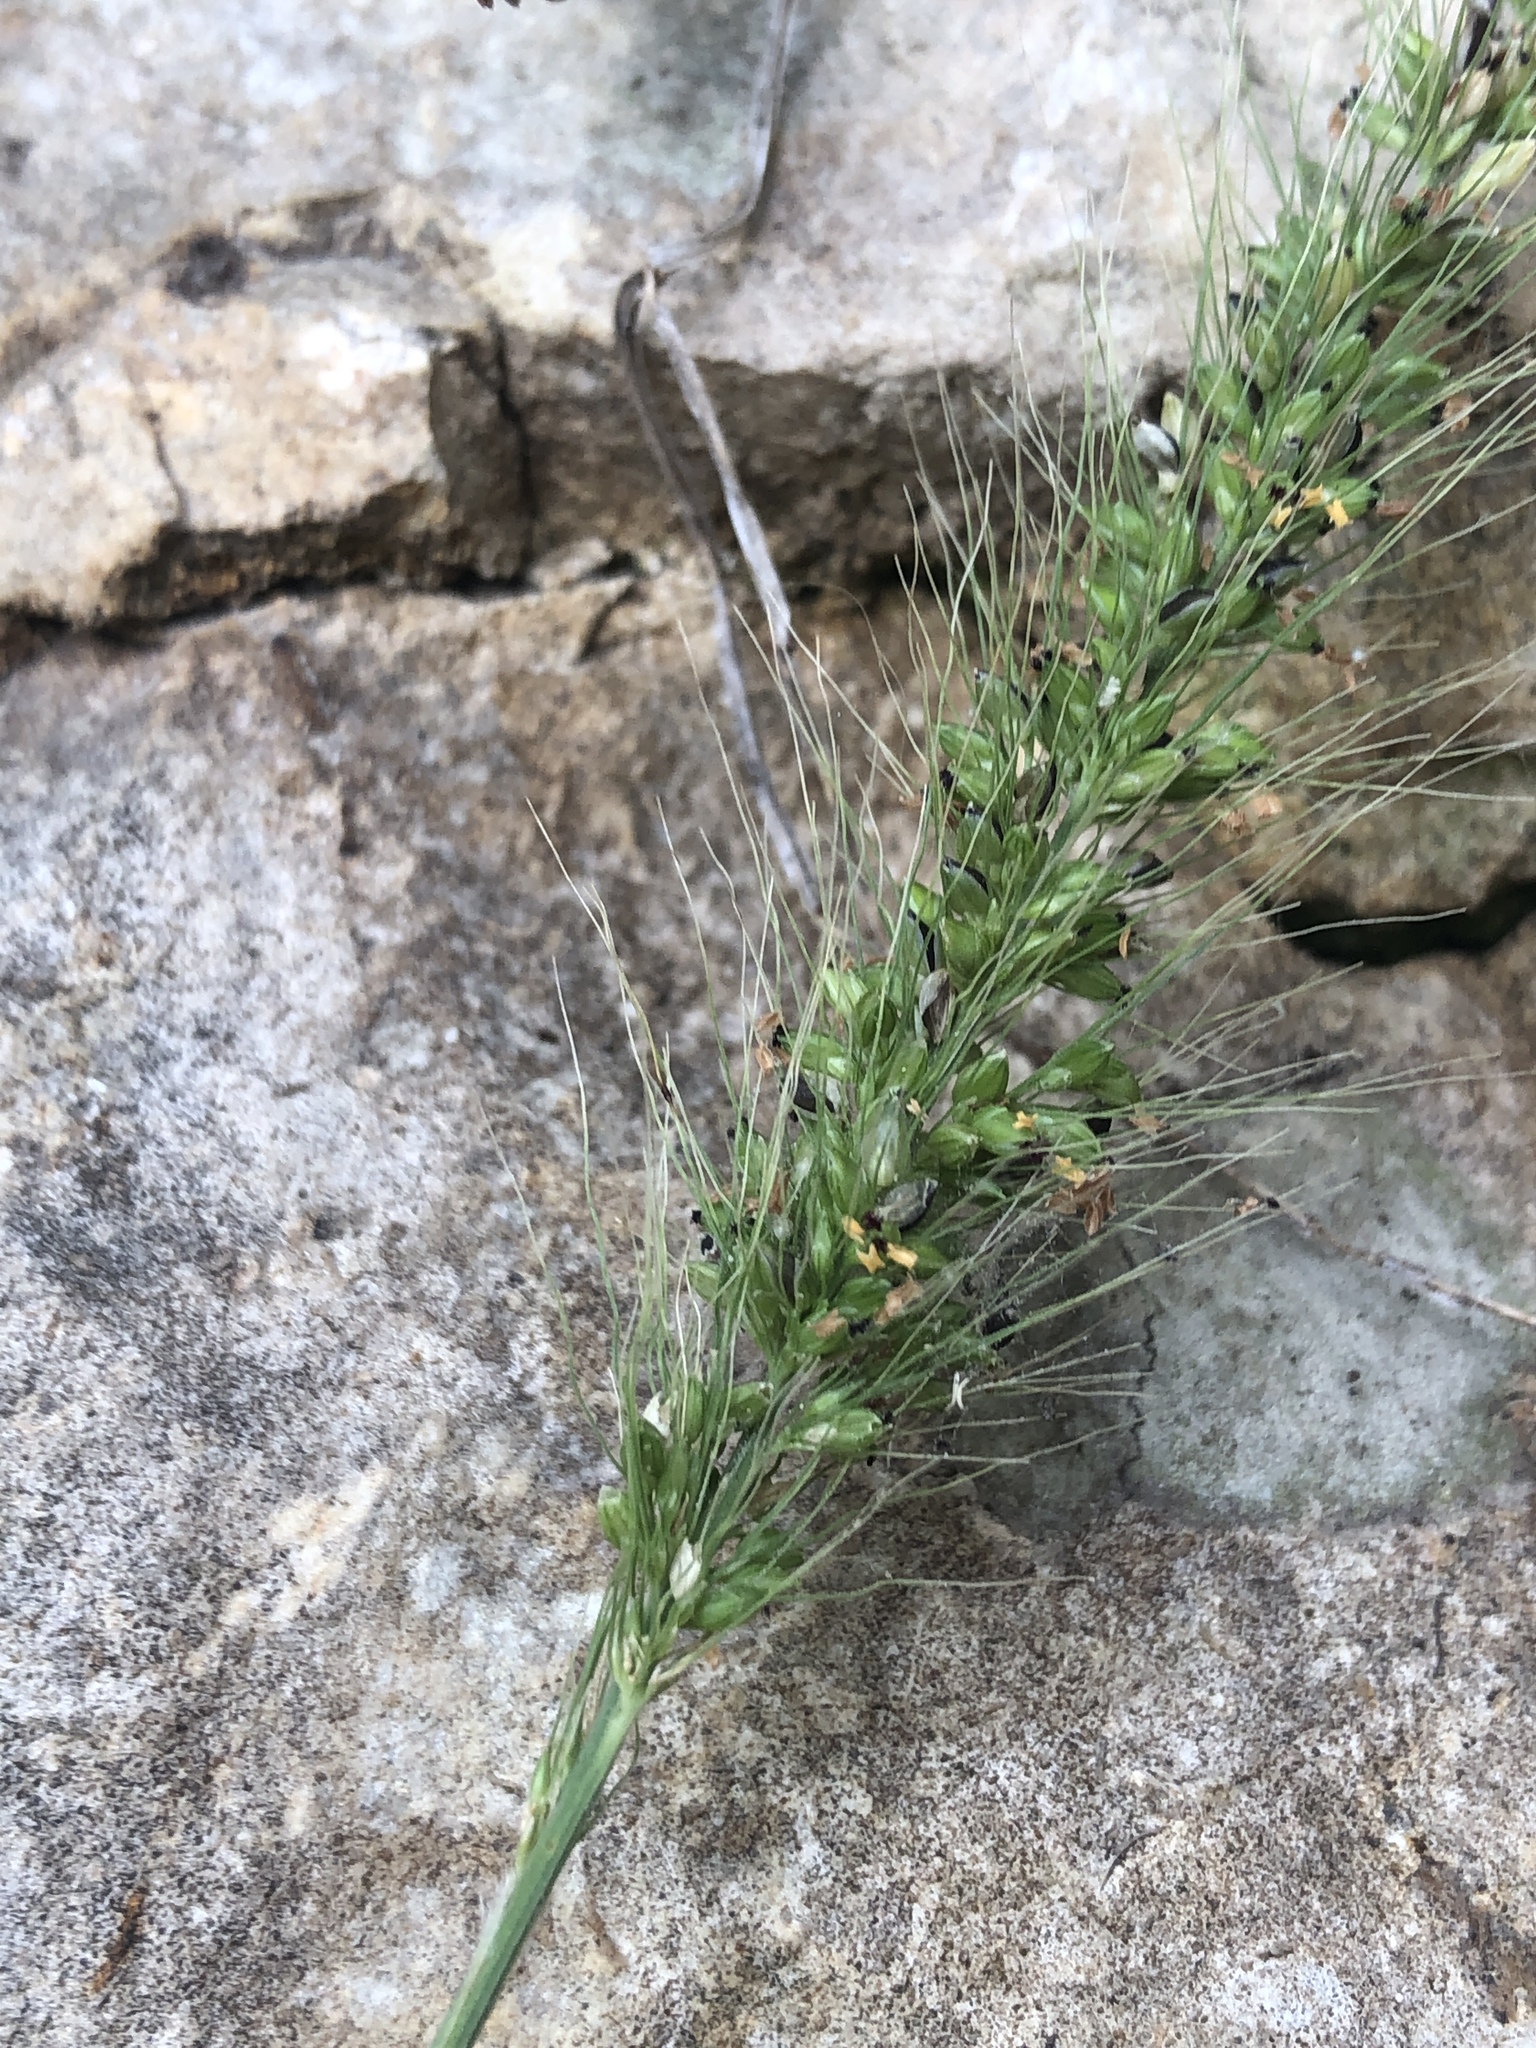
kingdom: Plantae
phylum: Tracheophyta
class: Liliopsida
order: Poales
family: Poaceae
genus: Setaria
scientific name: Setaria scheelei
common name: Southwestern bristle grass
